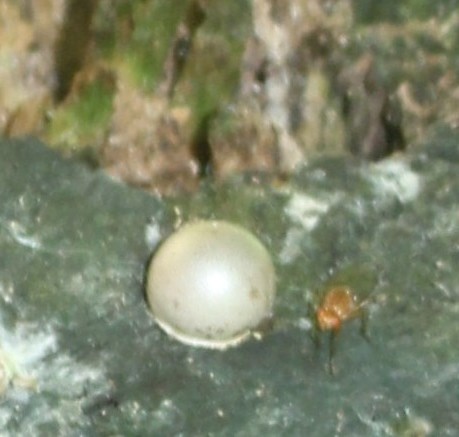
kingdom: Protozoa
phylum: Mycetozoa
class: Myxomycetes
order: Cribrariales
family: Tubiferaceae
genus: Lycogala
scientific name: Lycogala flavofuscum
